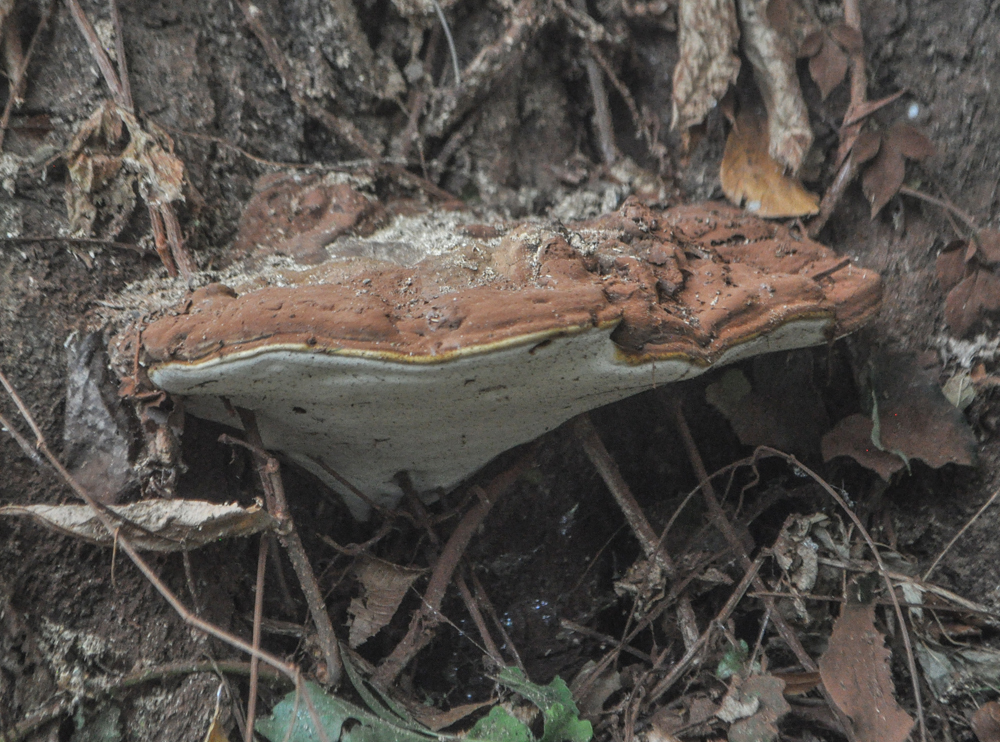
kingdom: Fungi
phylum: Basidiomycota
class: Agaricomycetes
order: Polyporales
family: Polyporaceae
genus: Ganoderma
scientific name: Ganoderma applanatum
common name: Artist's bracket
